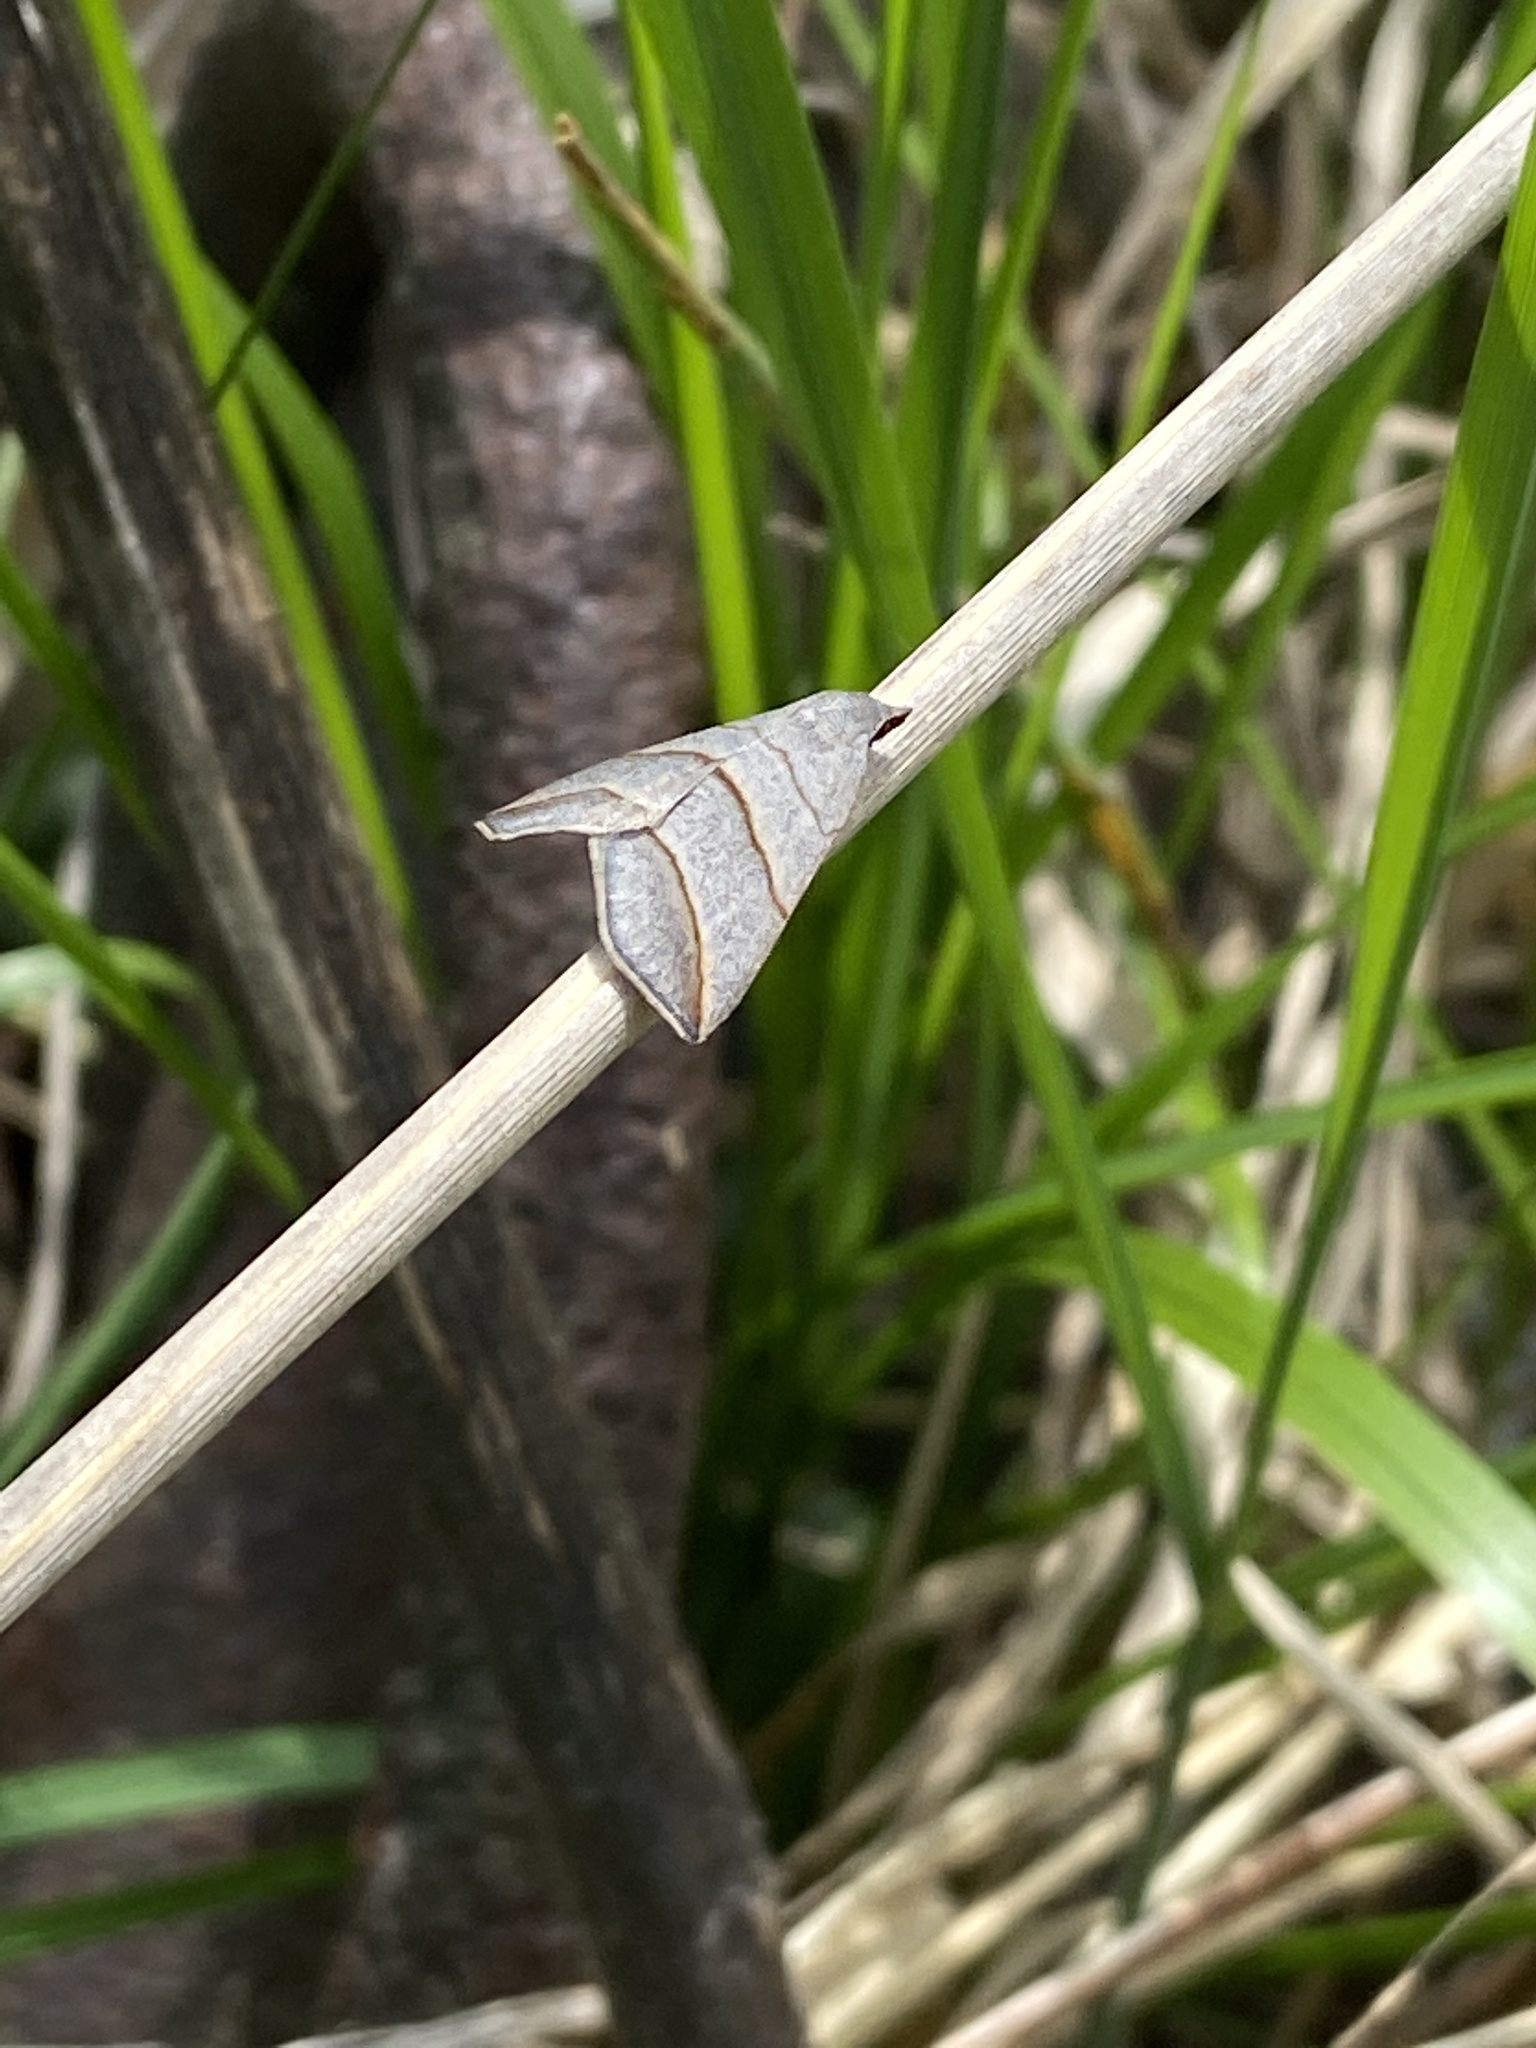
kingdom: Animalia
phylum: Arthropoda
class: Insecta
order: Lepidoptera
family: Erebidae
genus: Colobochyla
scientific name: Colobochyla salicalis
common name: Lesser belle
